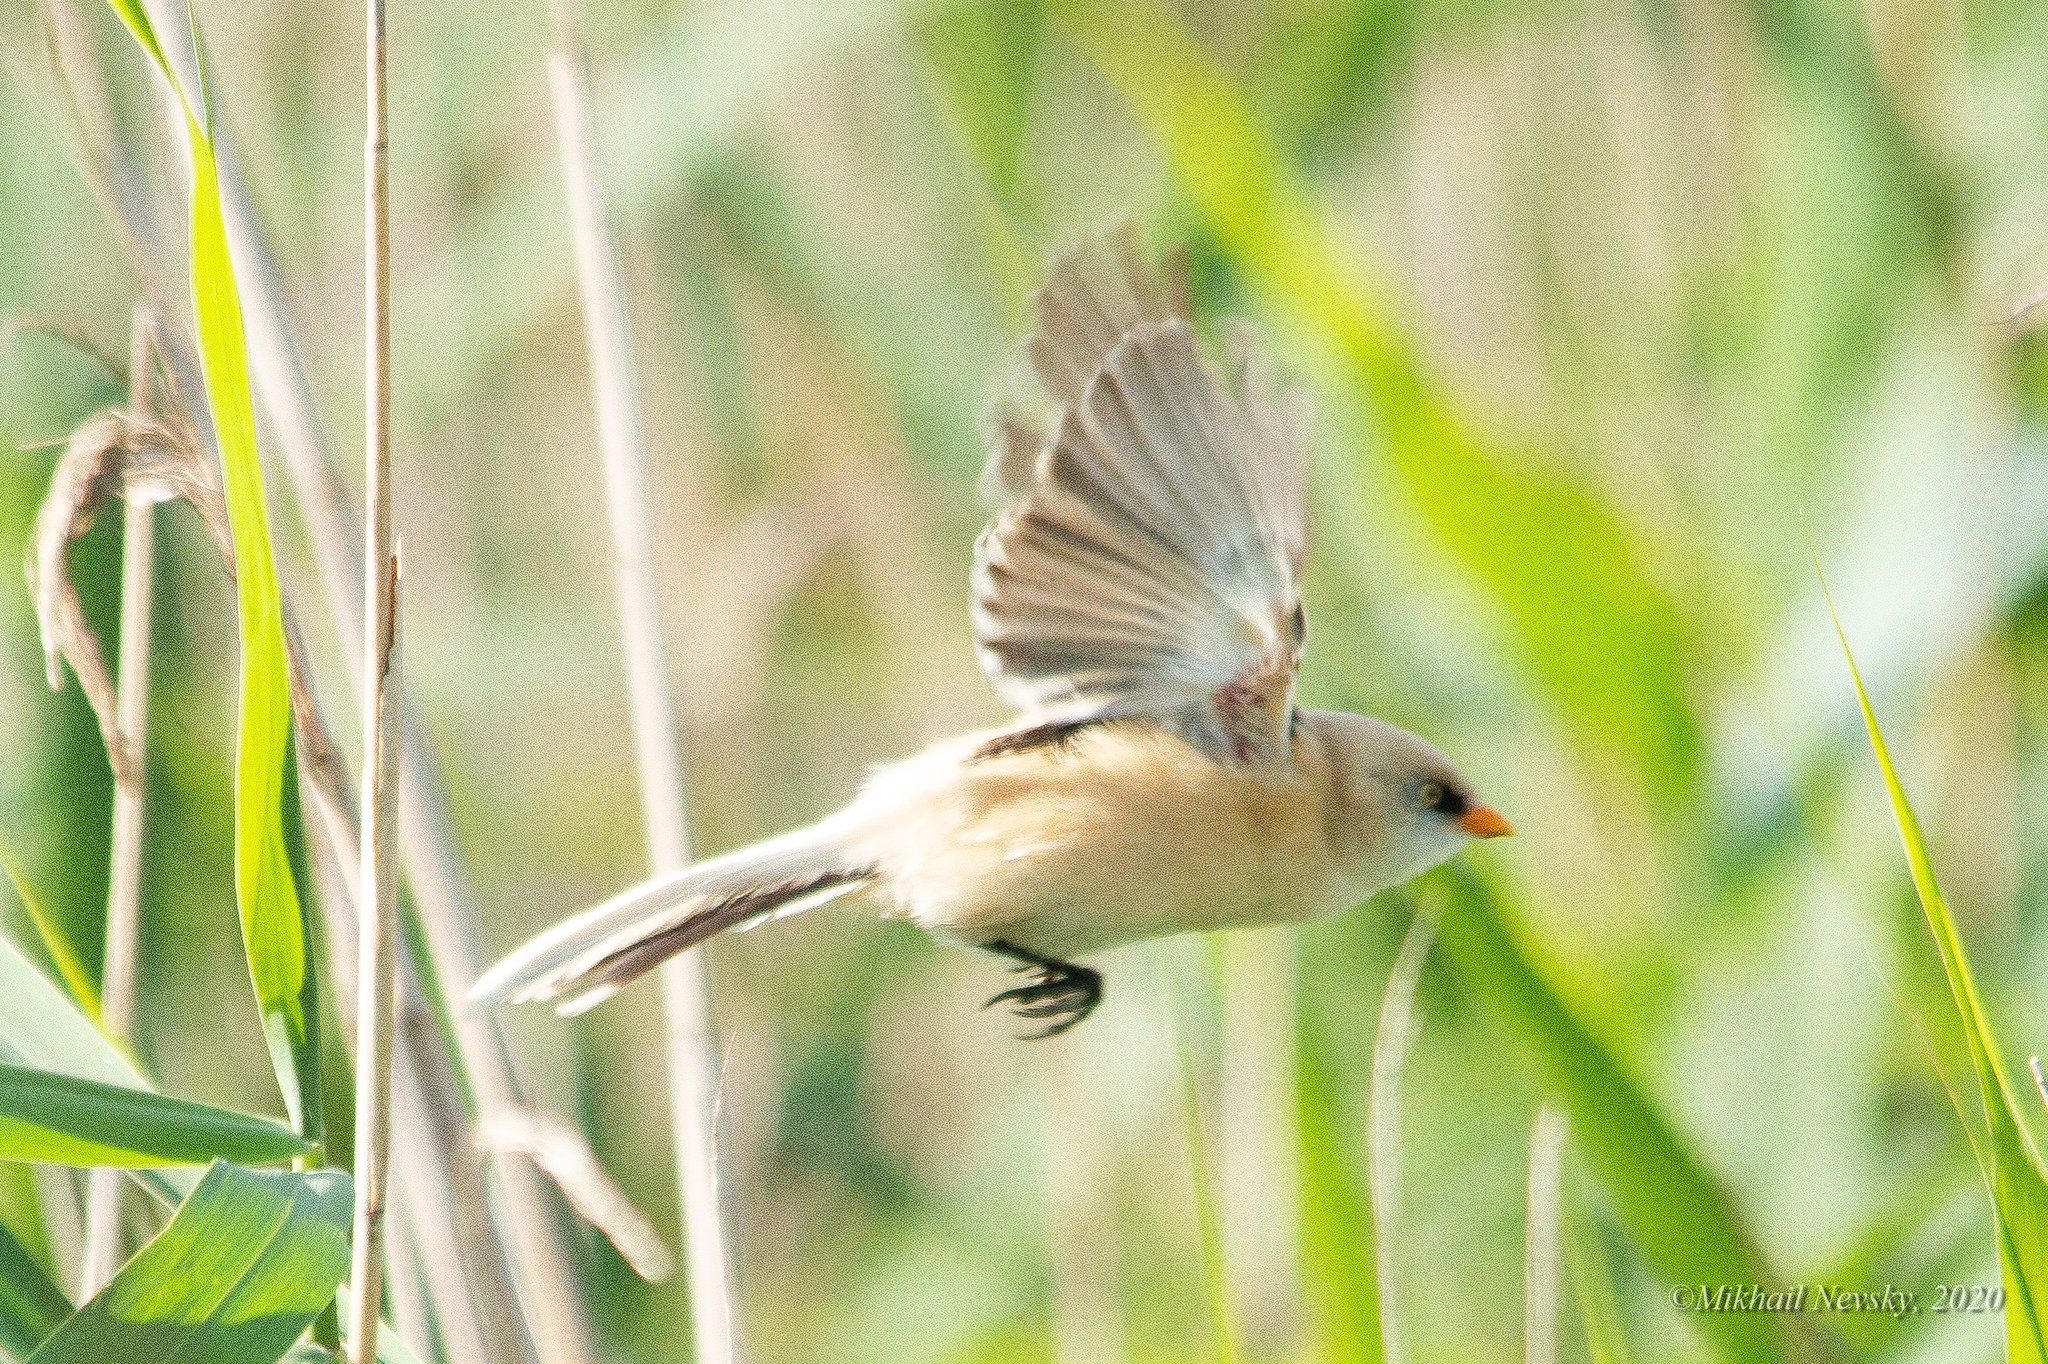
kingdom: Animalia
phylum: Chordata
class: Aves
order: Passeriformes
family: Panuridae
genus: Panurus
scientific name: Panurus biarmicus
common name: Bearded reedling
